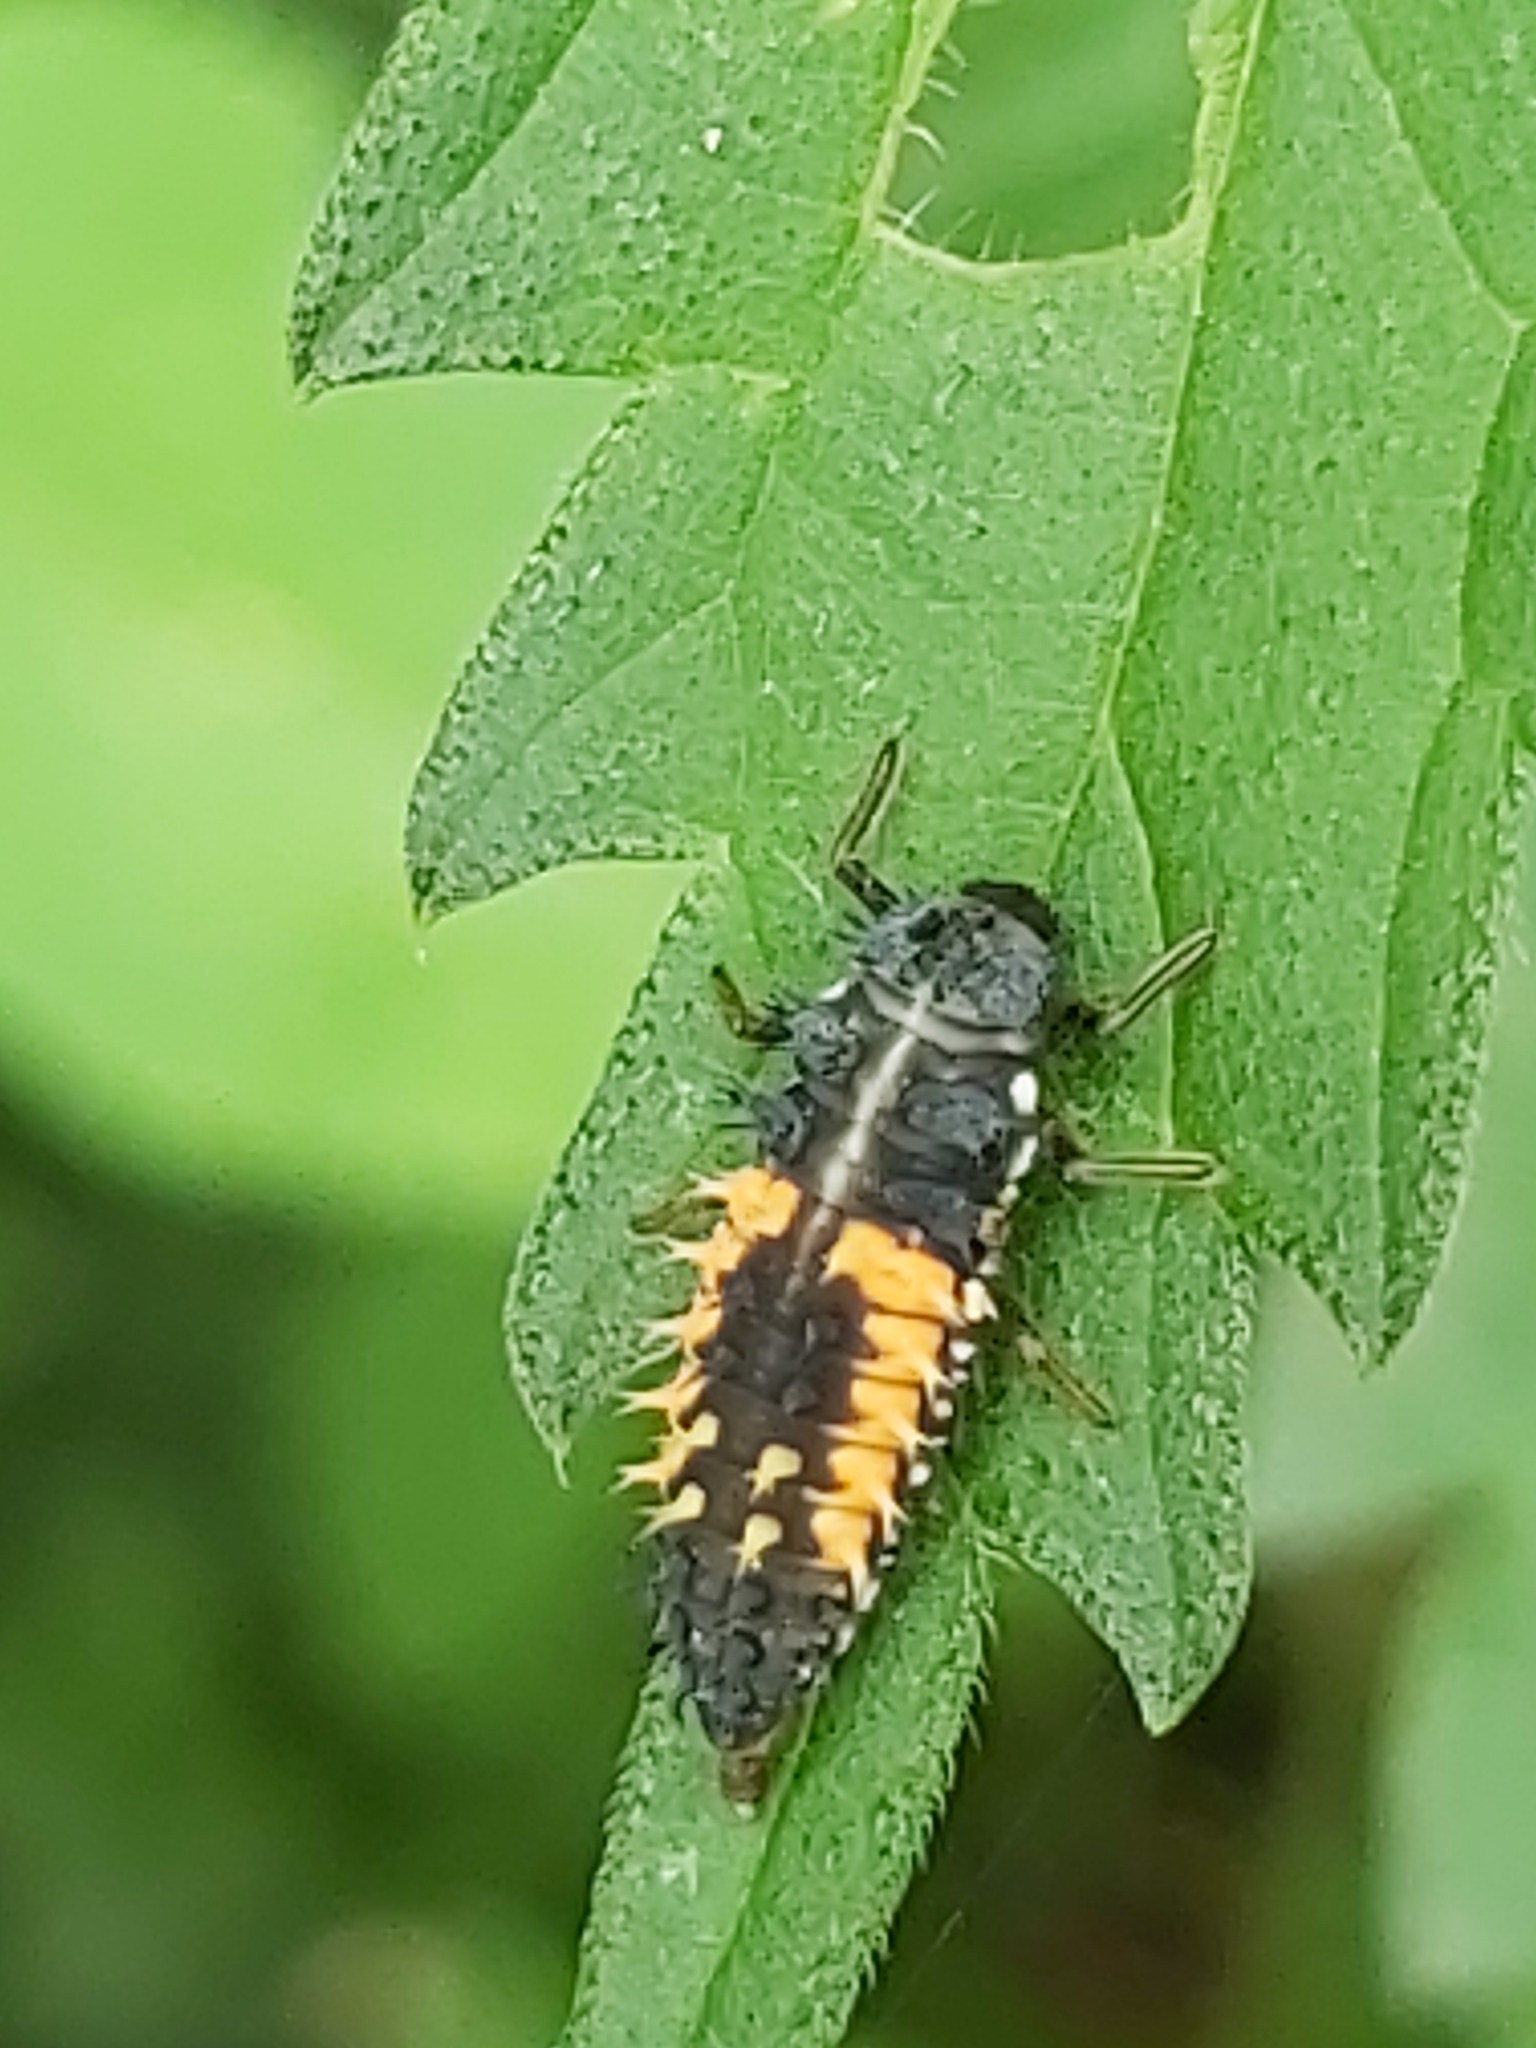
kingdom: Animalia
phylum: Arthropoda
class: Insecta
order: Coleoptera
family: Coccinellidae
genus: Harmonia
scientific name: Harmonia axyridis
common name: Harlequin ladybird
